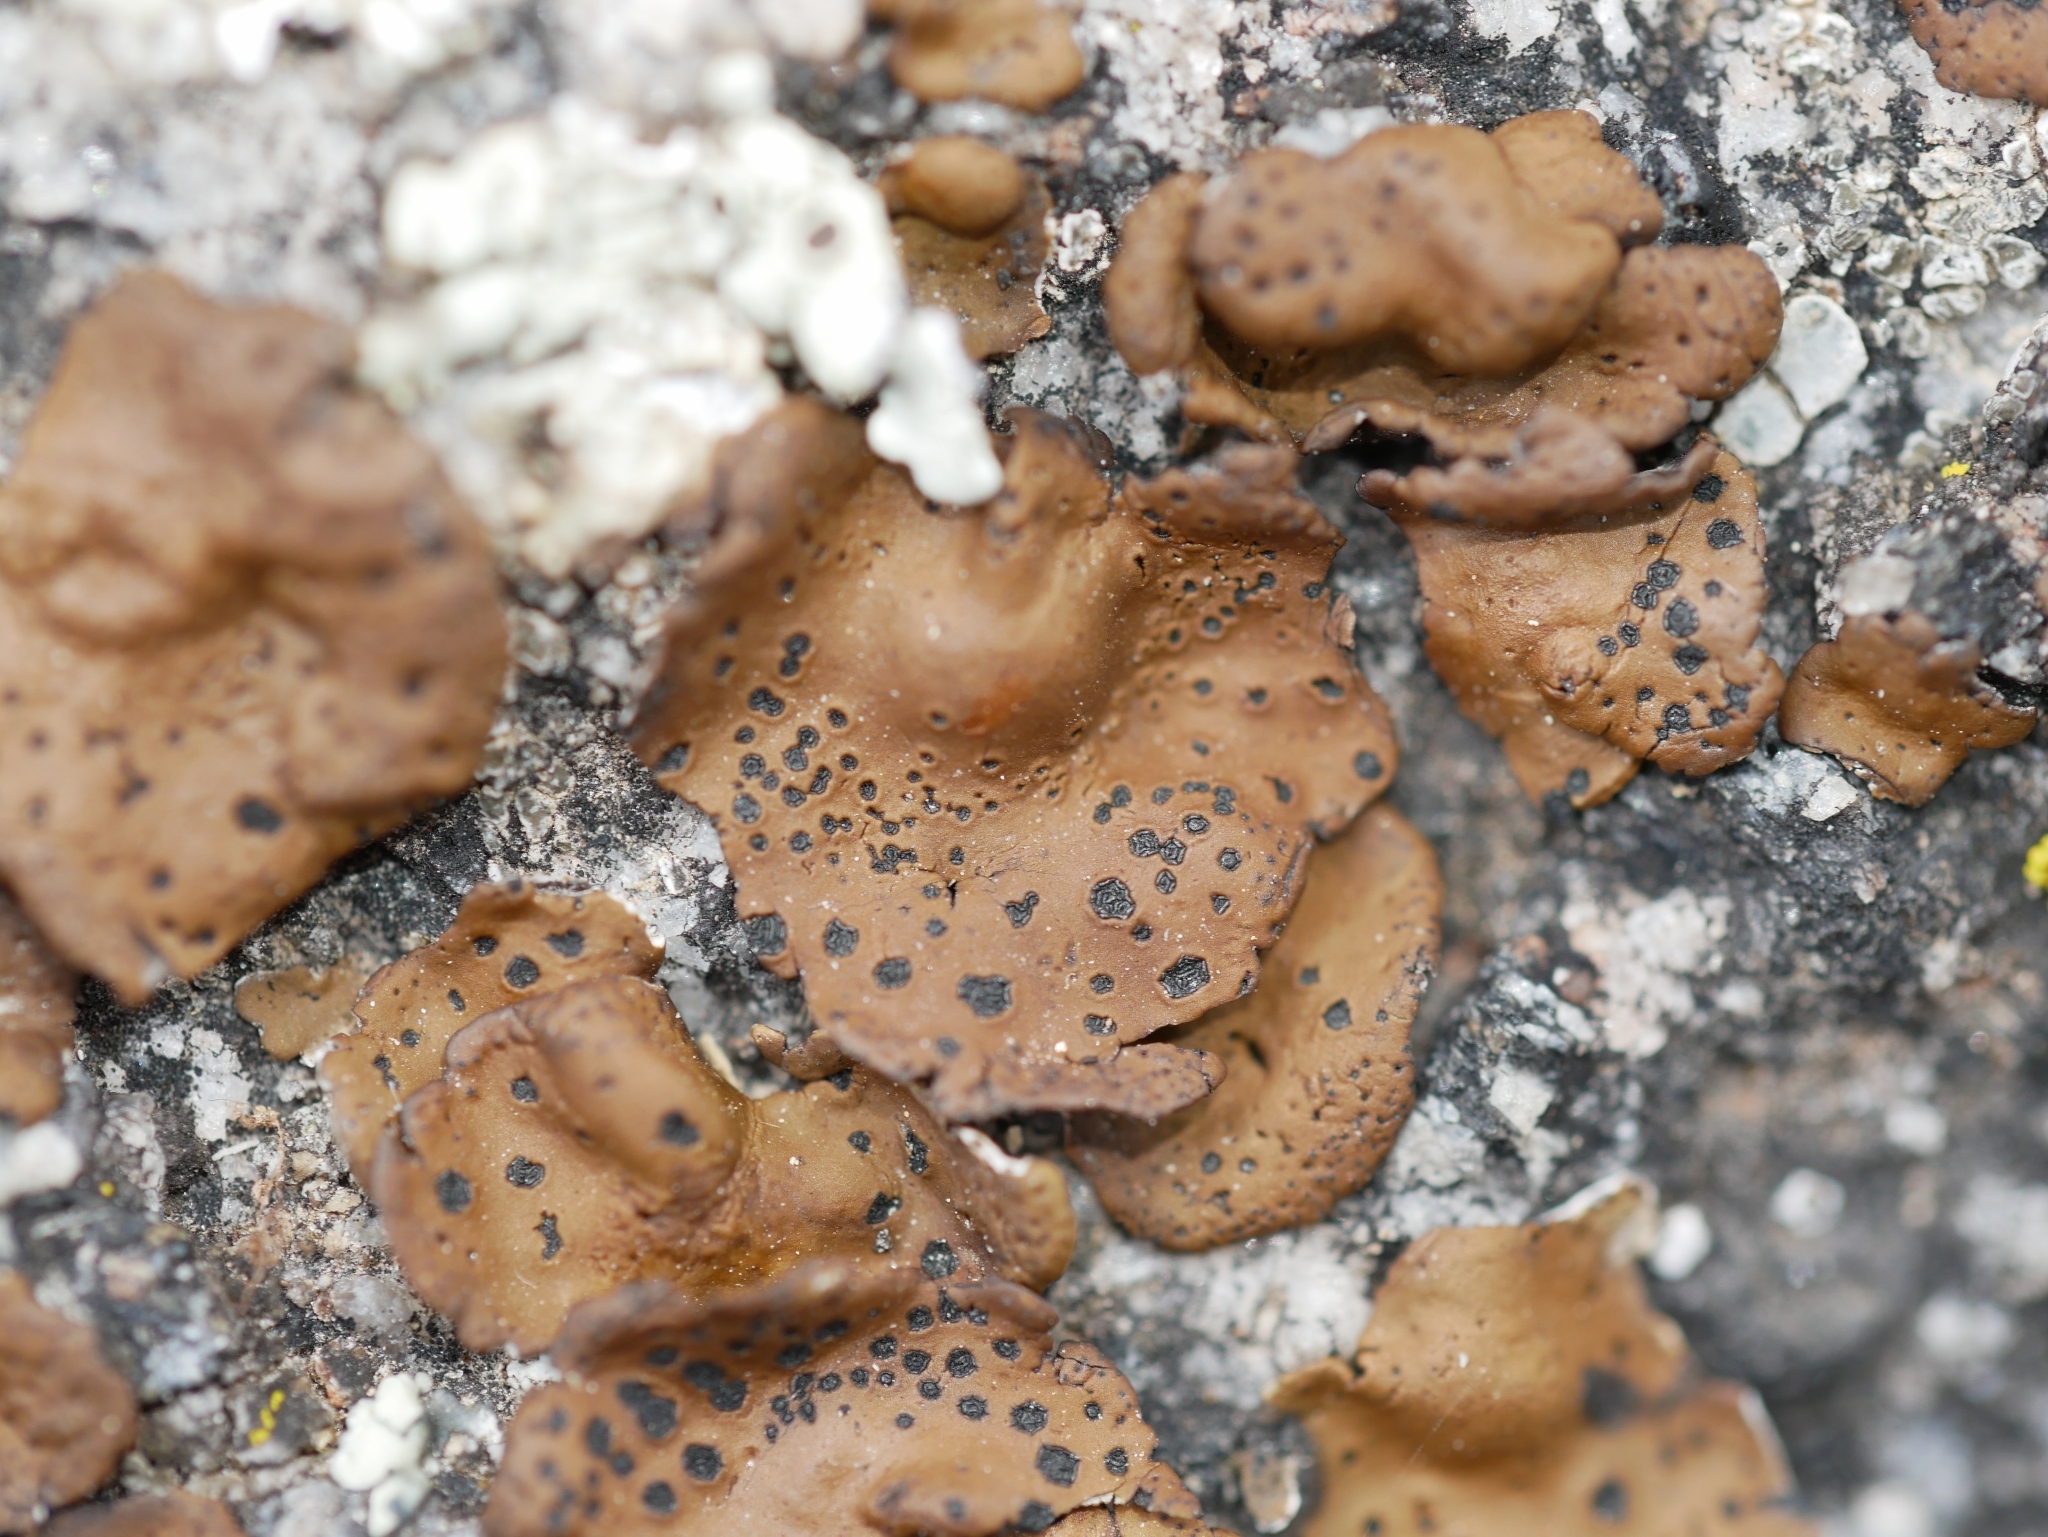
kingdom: Fungi
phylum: Ascomycota
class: Lecanoromycetes
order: Umbilicariales
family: Umbilicariaceae
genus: Umbilicaria
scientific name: Umbilicaria phaea
